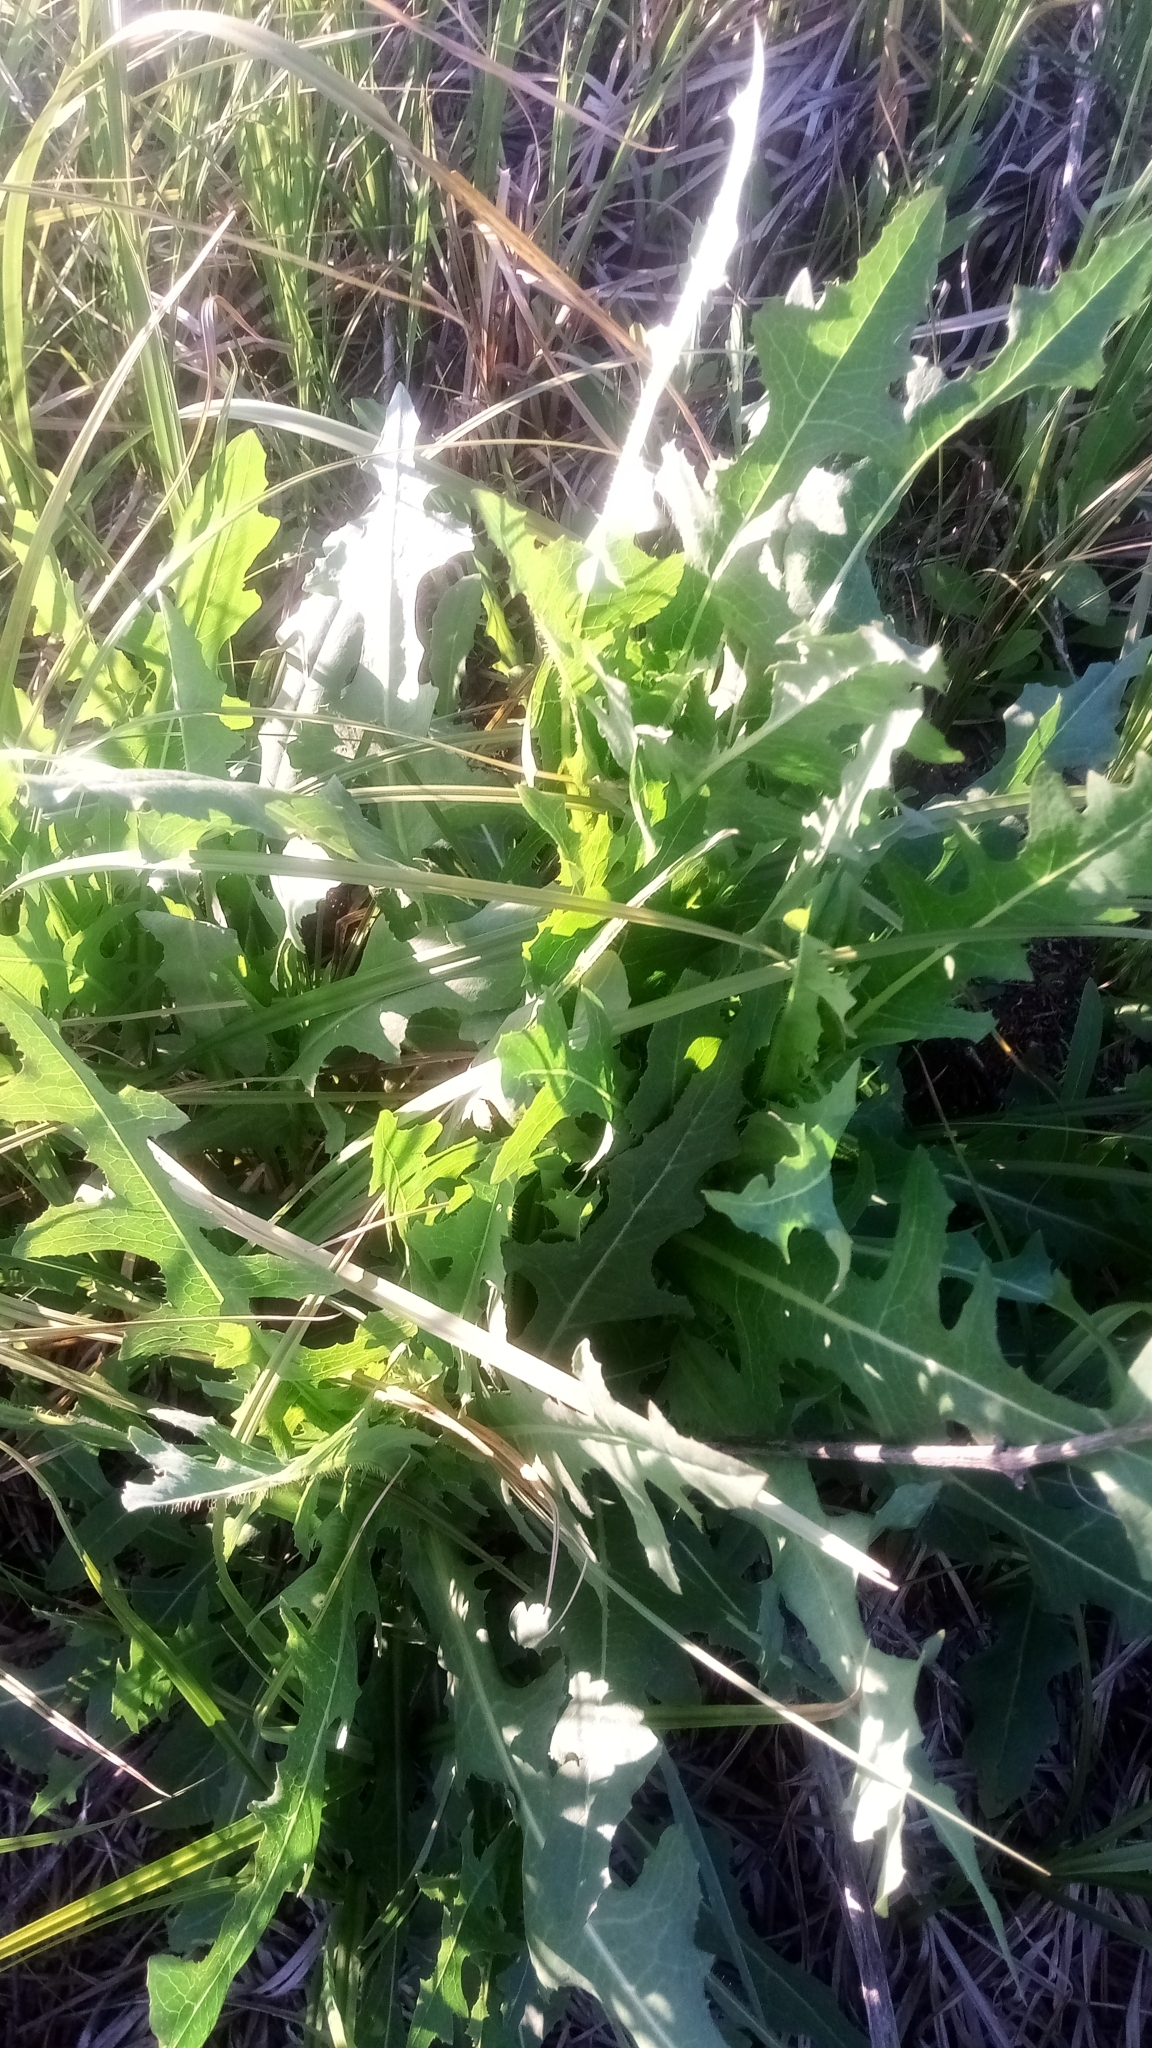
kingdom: Plantae
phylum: Tracheophyta
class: Magnoliopsida
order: Asterales
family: Asteraceae
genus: Lactuca
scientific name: Lactuca serriola
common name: Prickly lettuce
